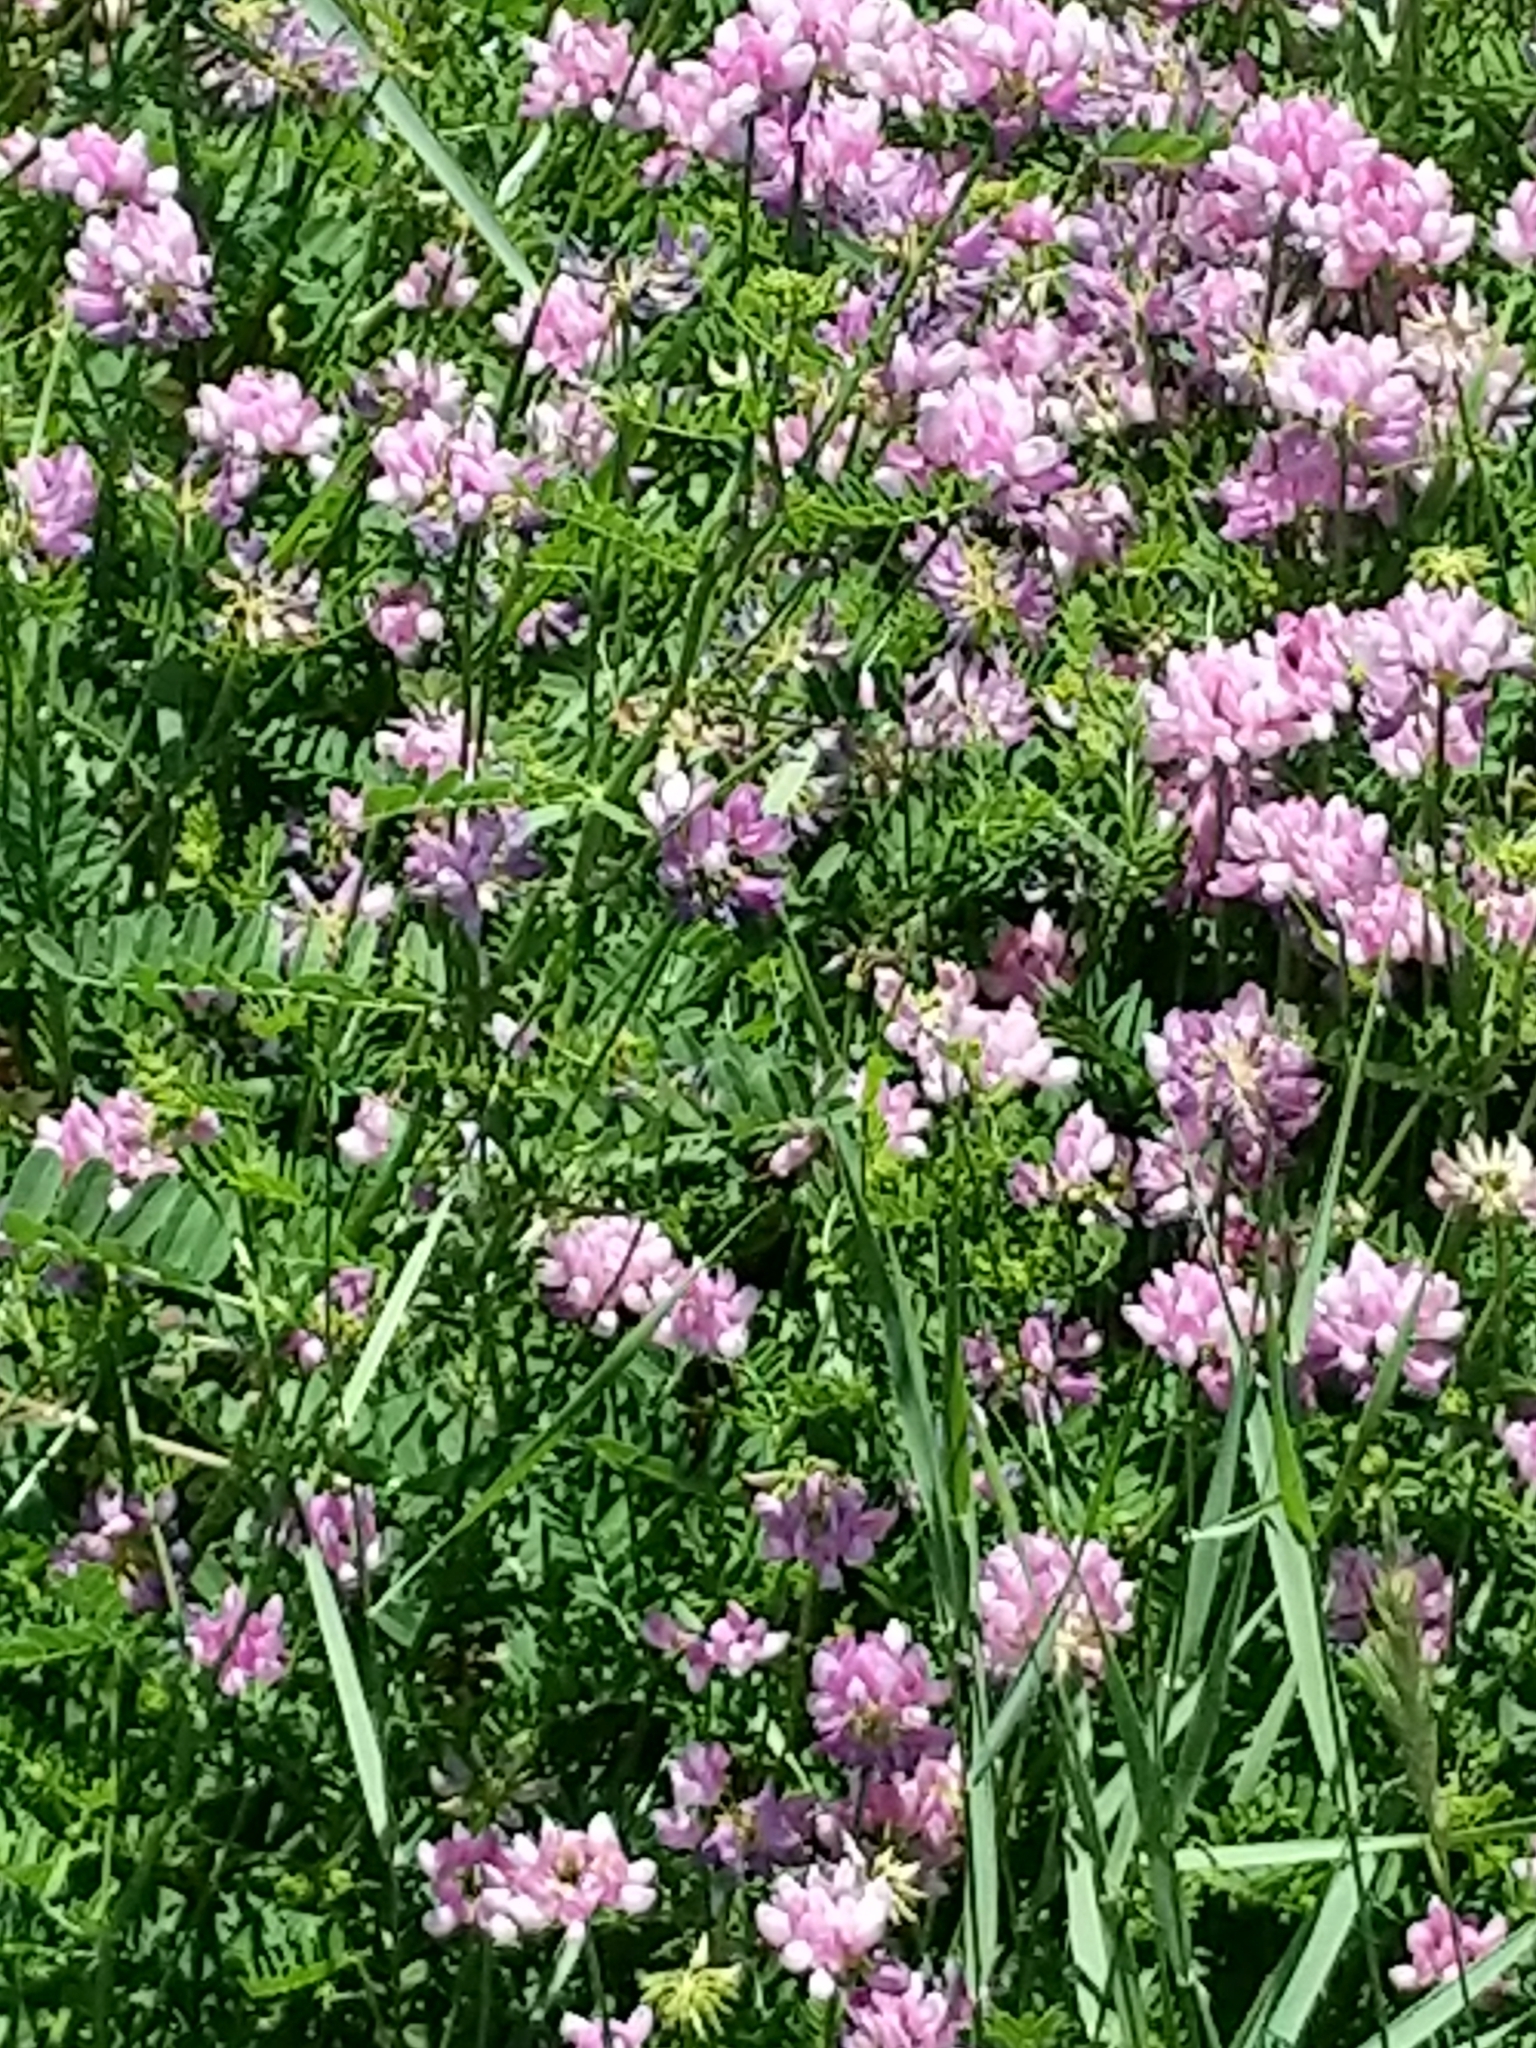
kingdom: Plantae
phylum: Tracheophyta
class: Magnoliopsida
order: Fabales
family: Fabaceae
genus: Coronilla
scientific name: Coronilla varia
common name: Crownvetch
